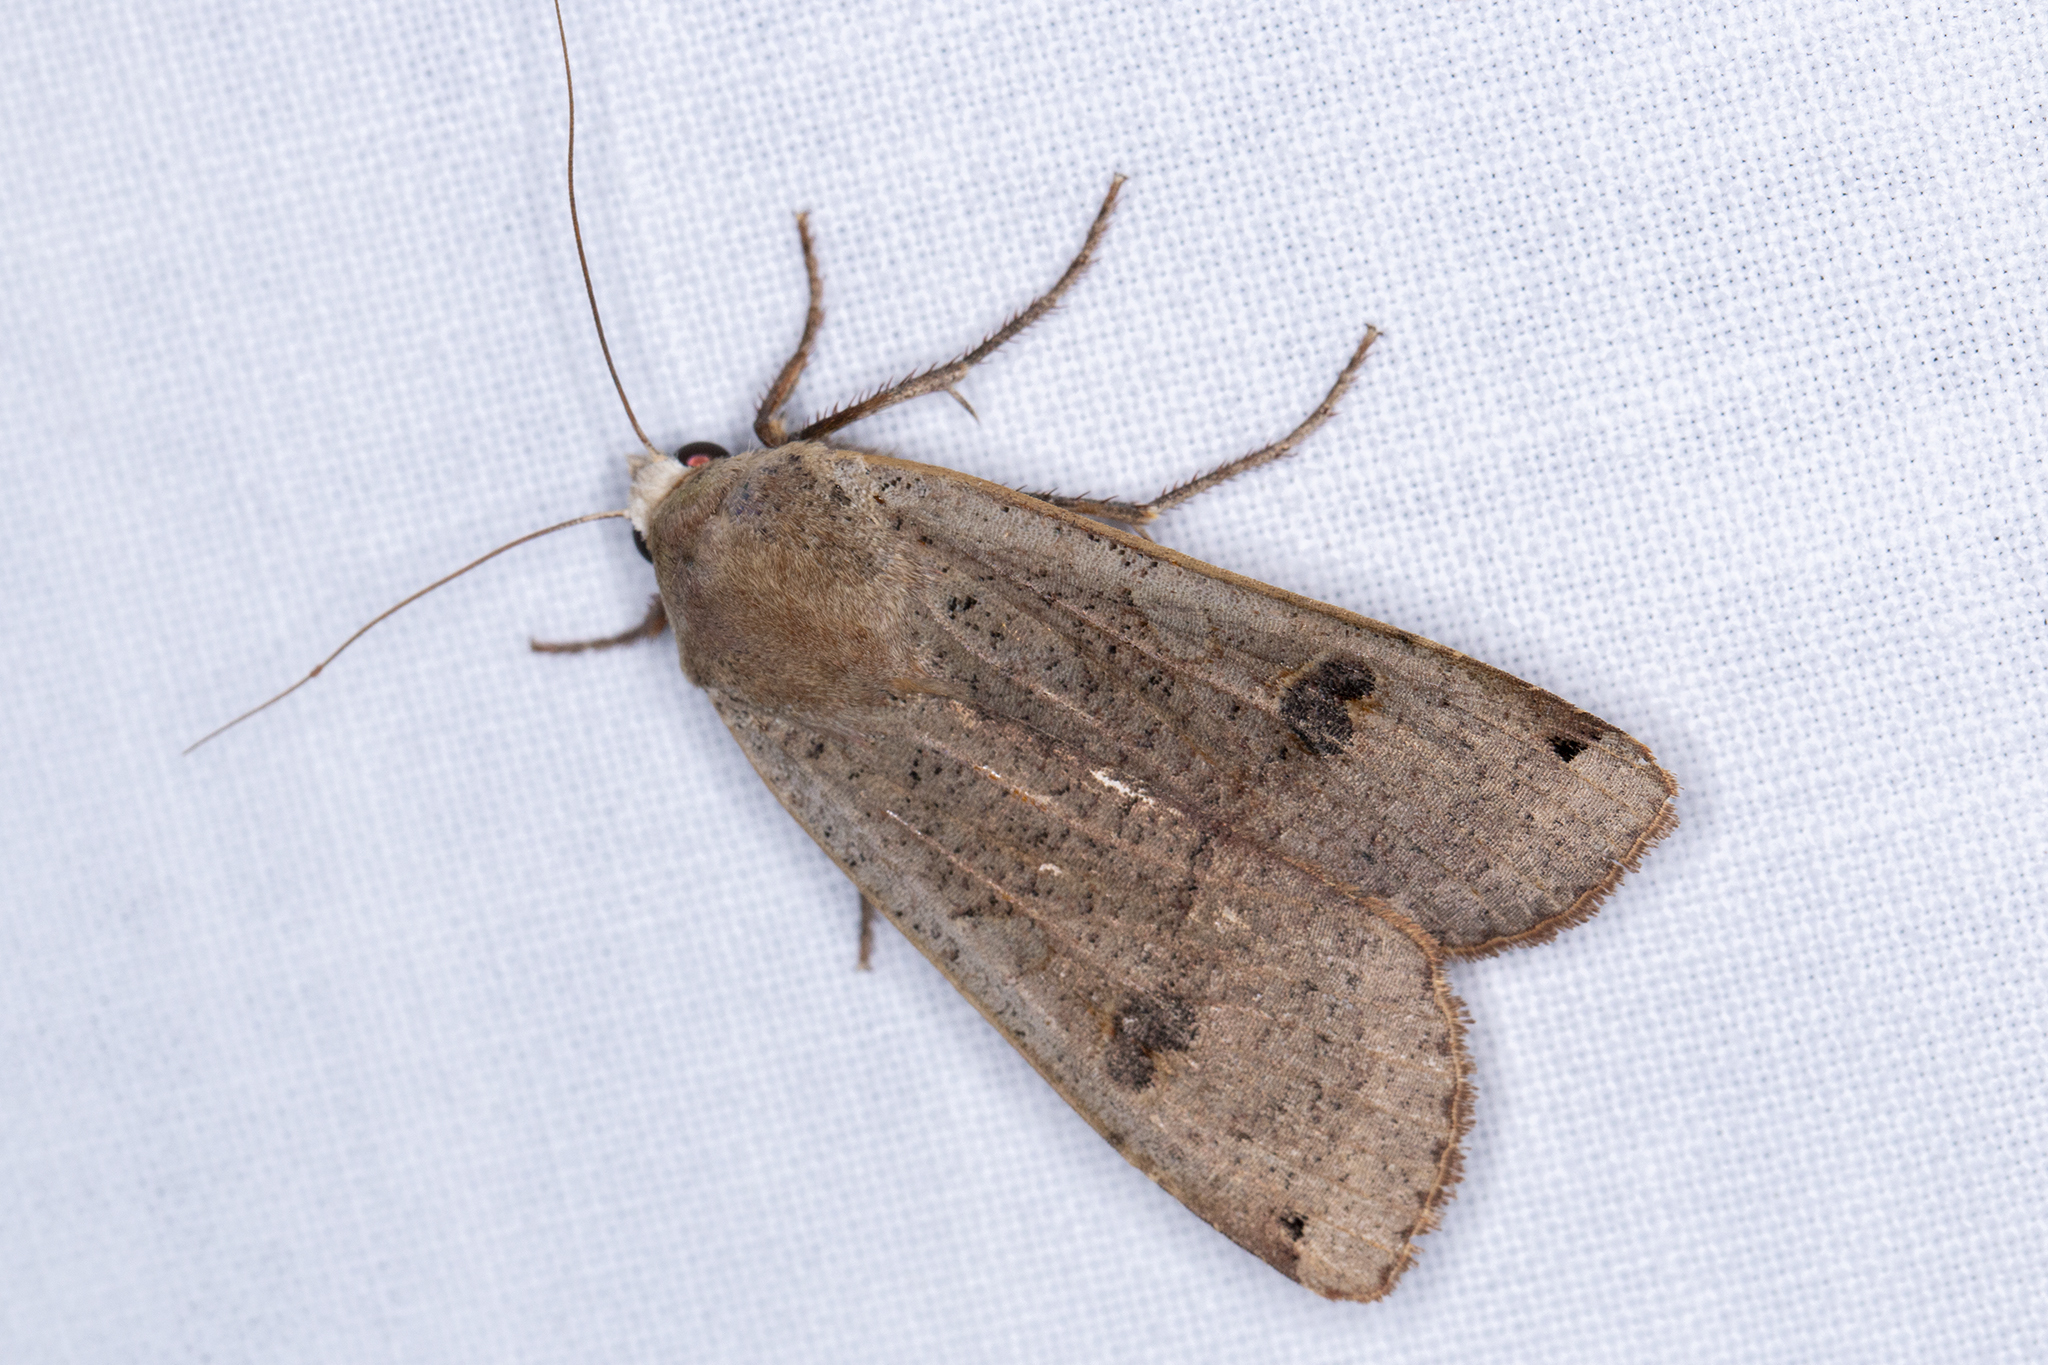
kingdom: Animalia
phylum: Arthropoda
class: Insecta
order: Lepidoptera
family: Noctuidae
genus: Noctua
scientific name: Noctua pronuba
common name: Large yellow underwing
